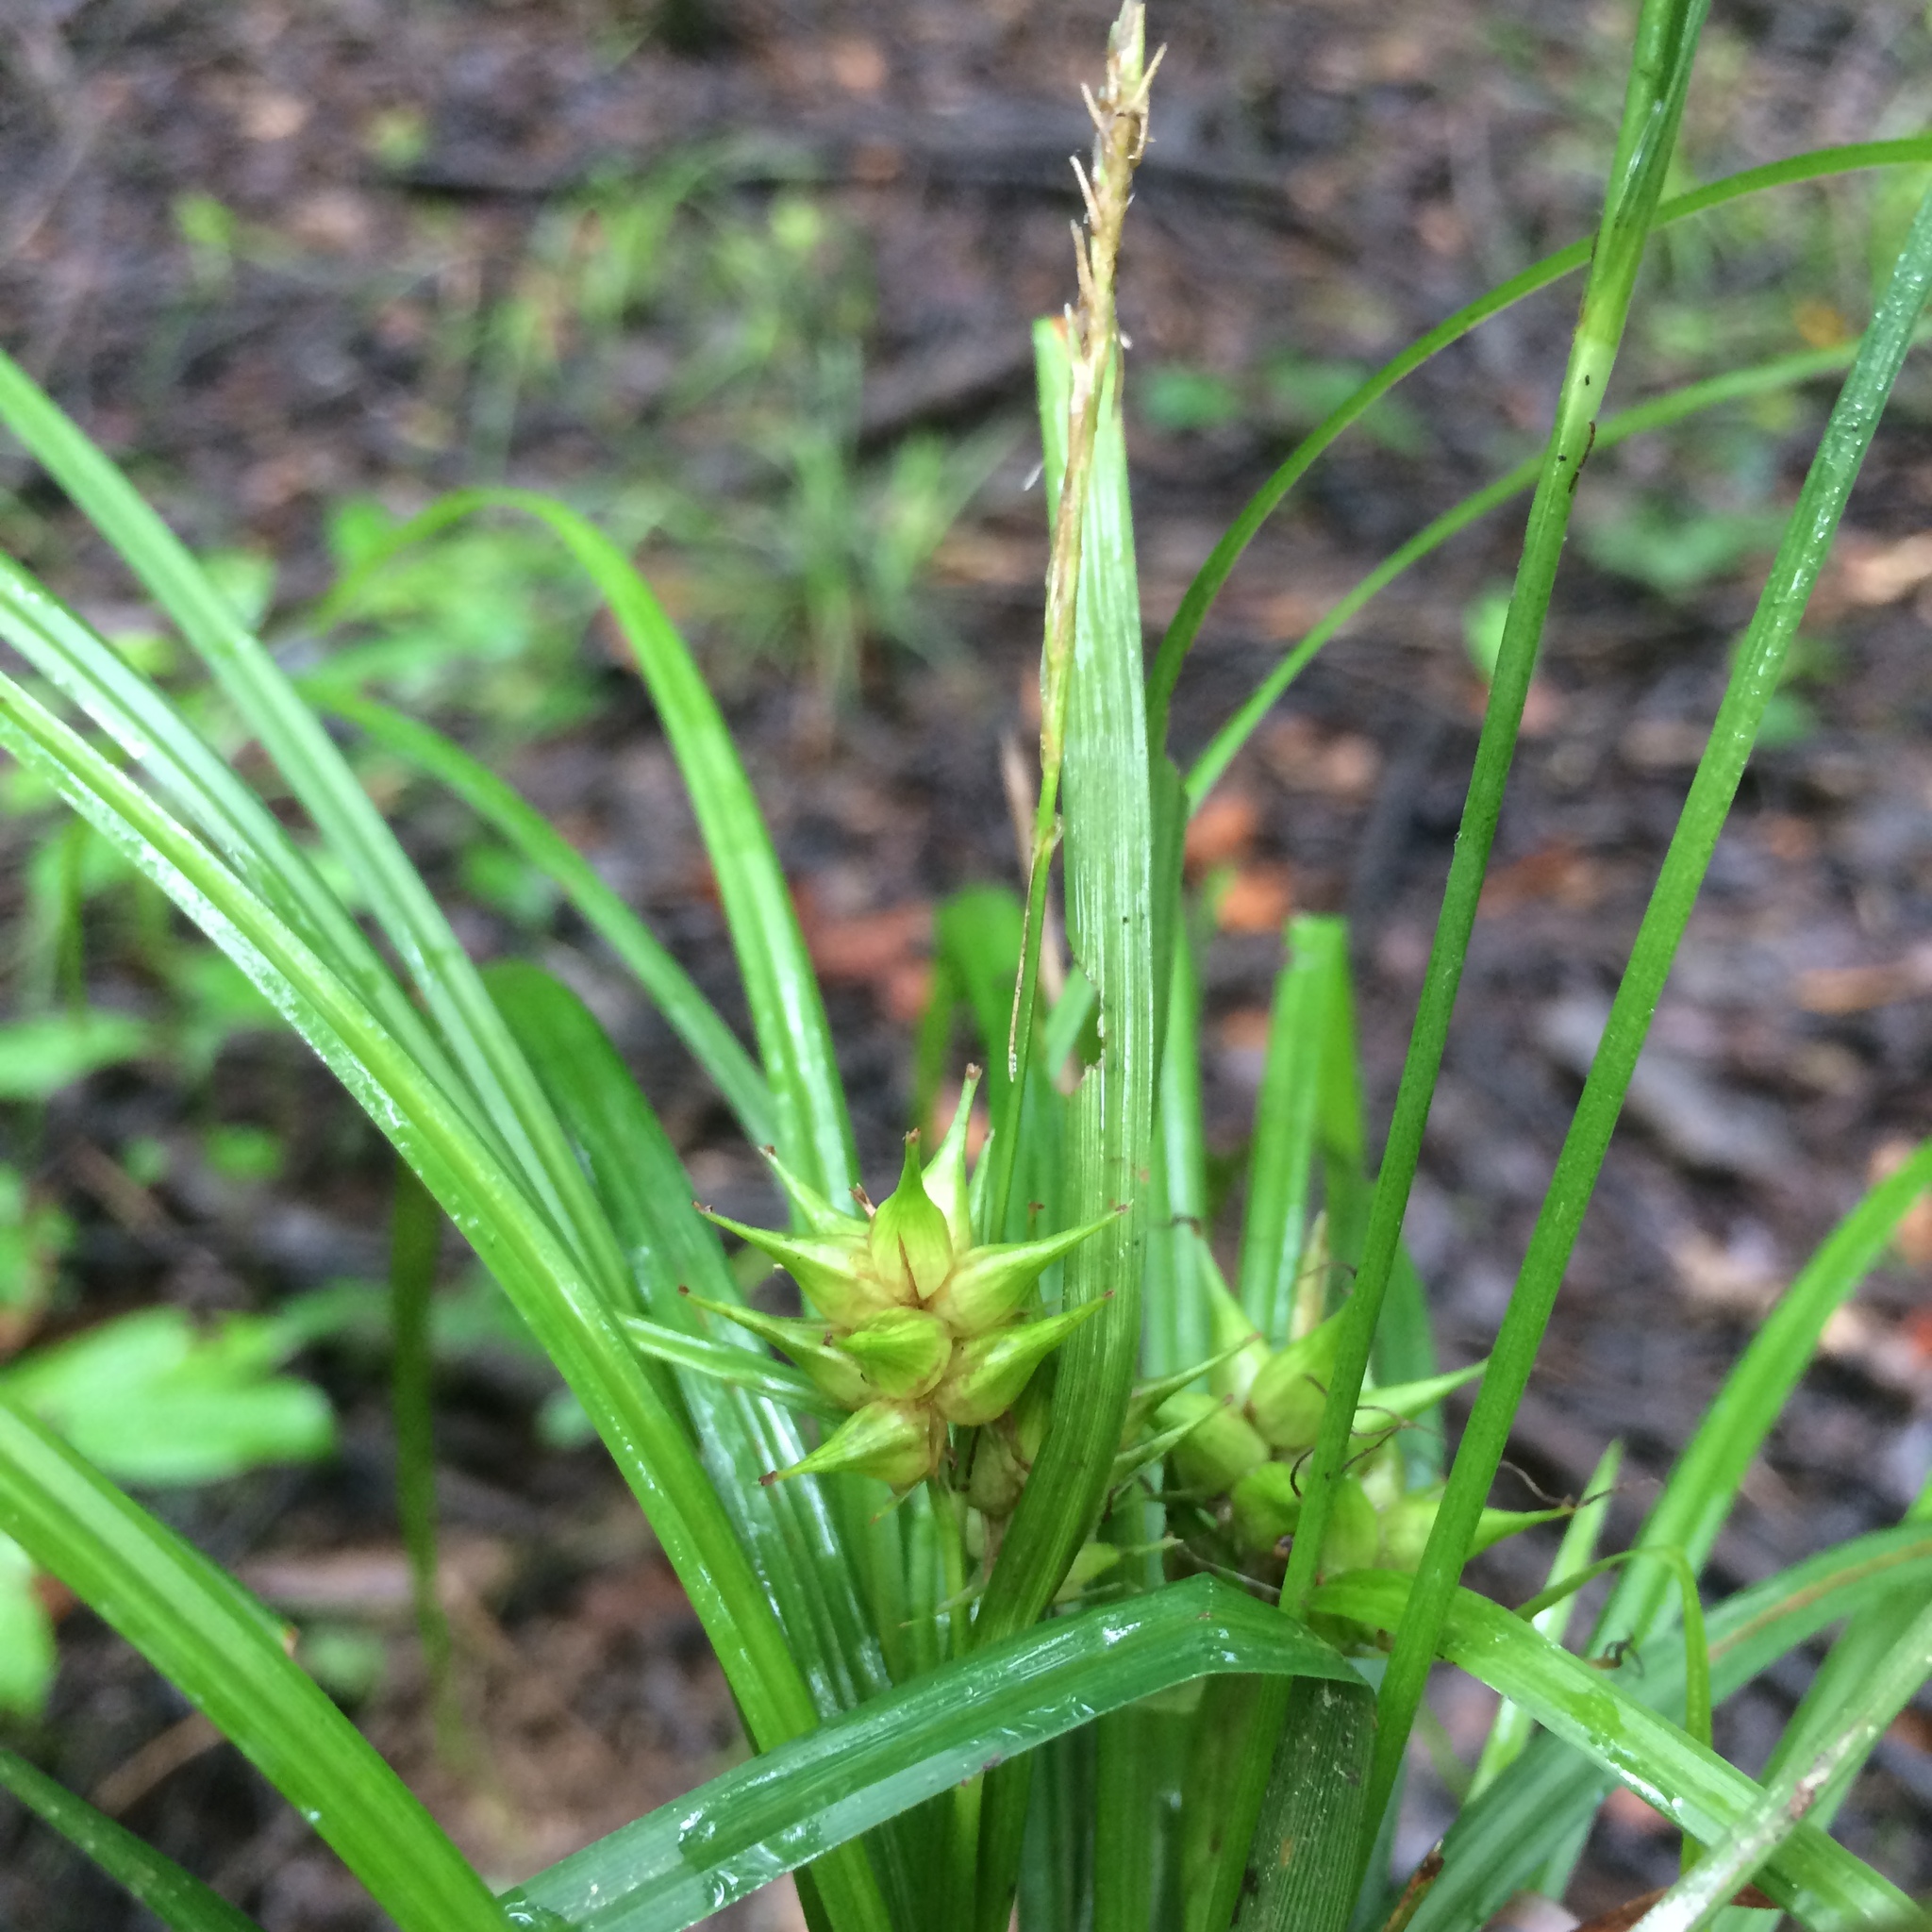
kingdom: Plantae
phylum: Tracheophyta
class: Liliopsida
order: Poales
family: Cyperaceae
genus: Carex
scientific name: Carex intumescens
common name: Greater bladder sedge
